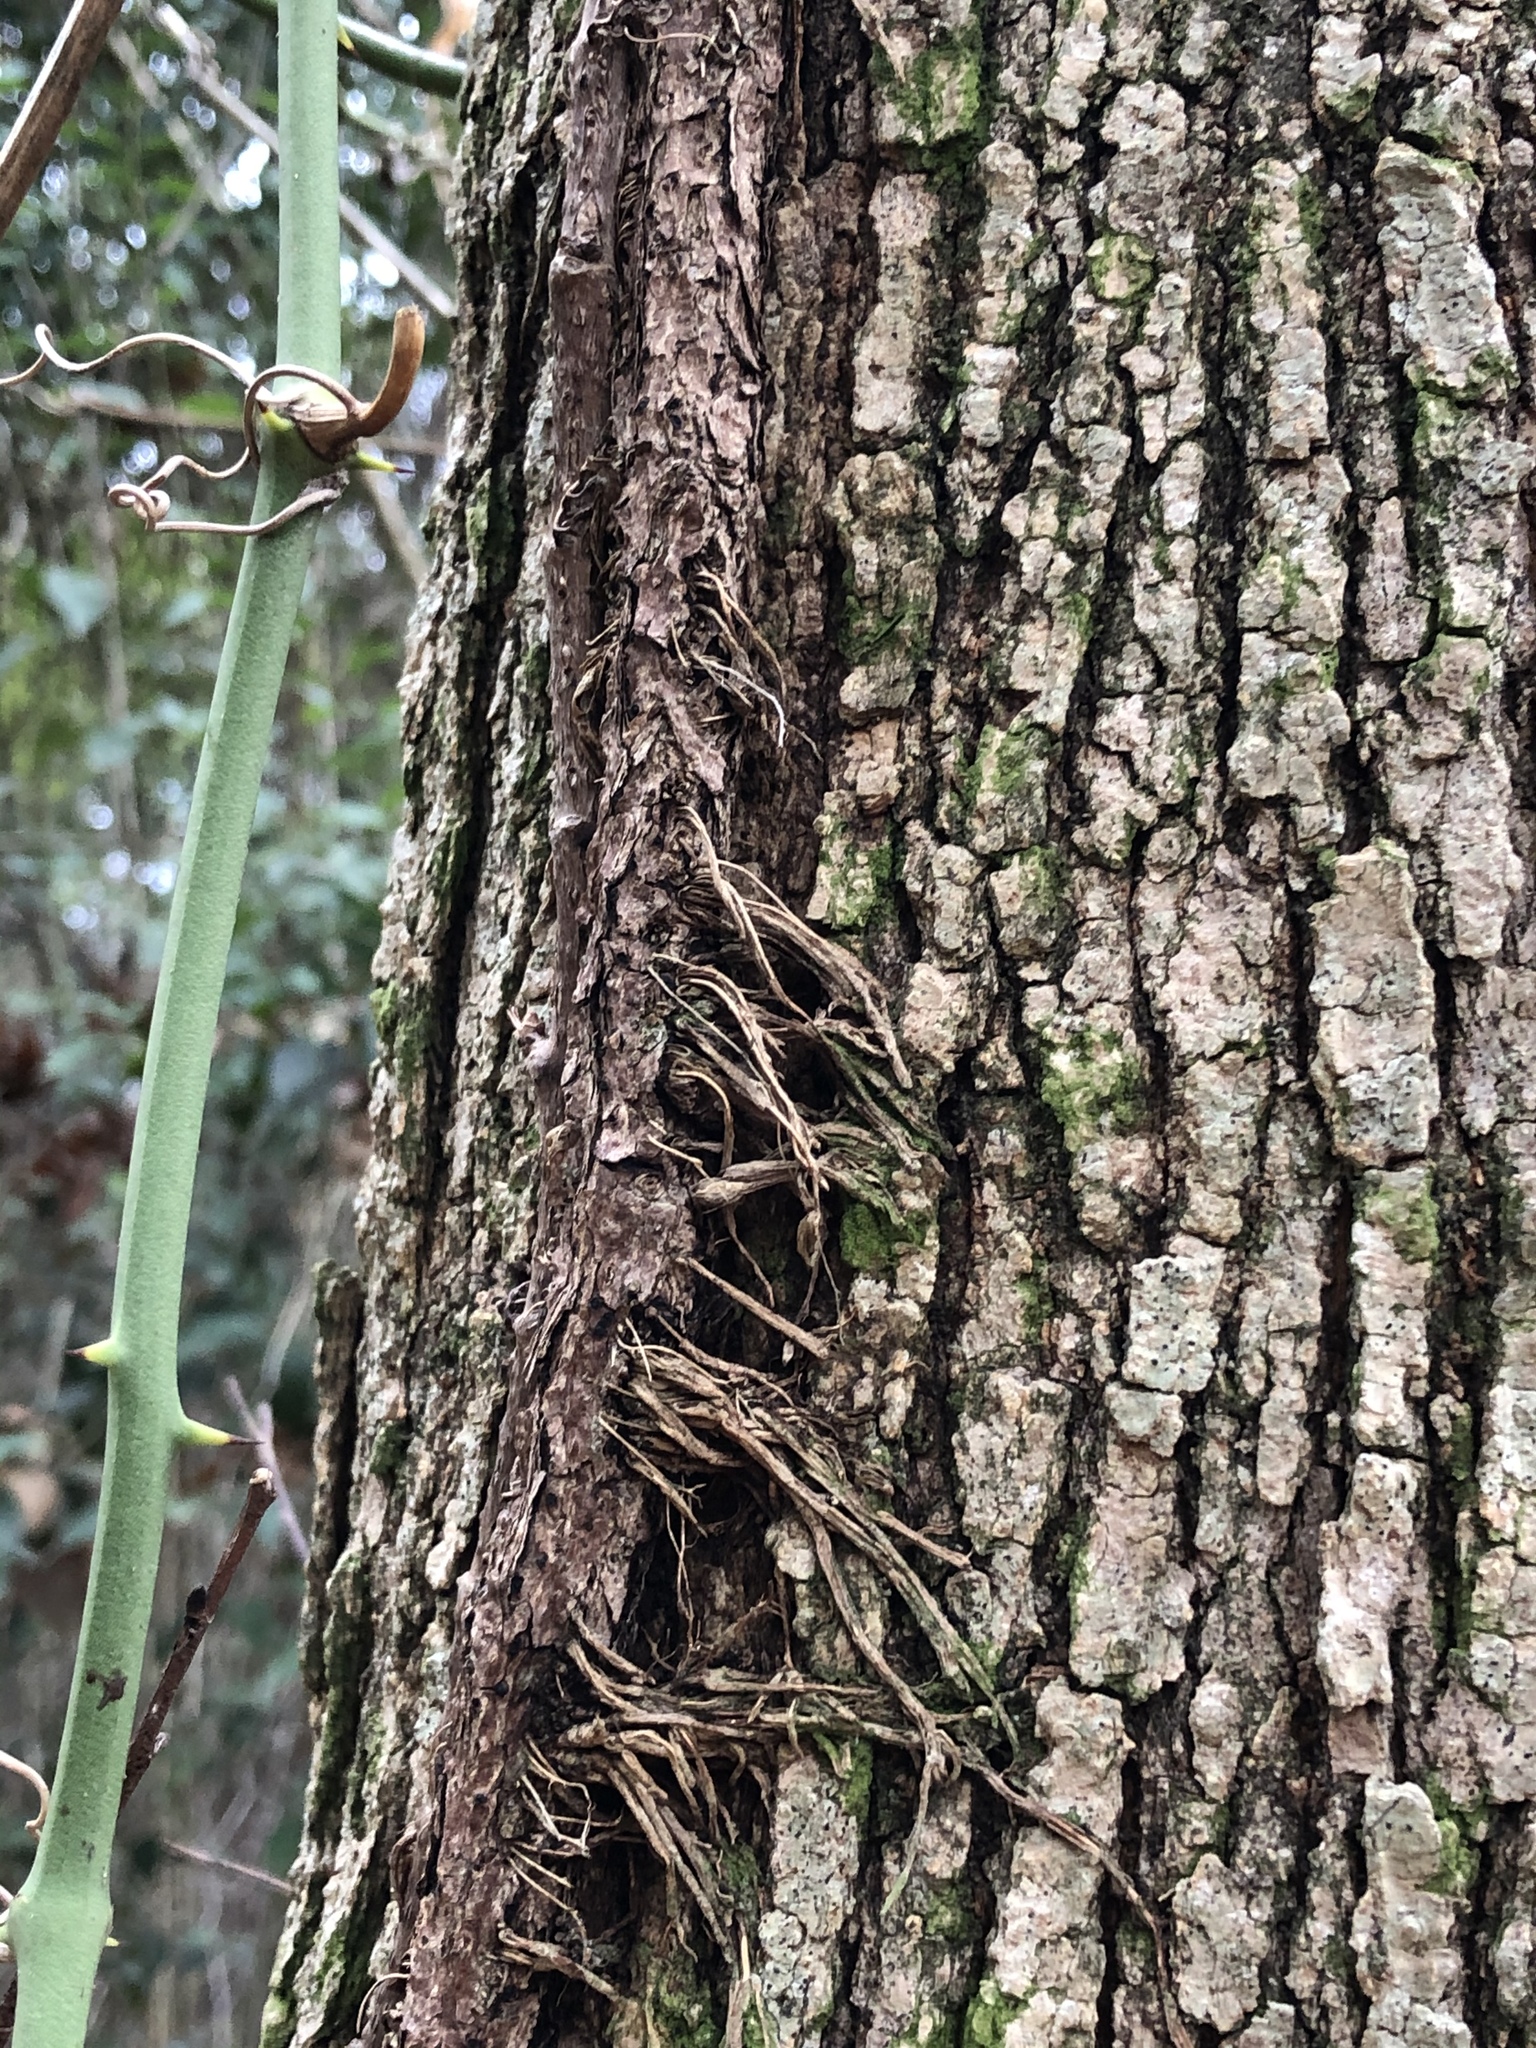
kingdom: Plantae
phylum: Tracheophyta
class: Magnoliopsida
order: Sapindales
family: Anacardiaceae
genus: Toxicodendron
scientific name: Toxicodendron radicans
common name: Poison ivy
